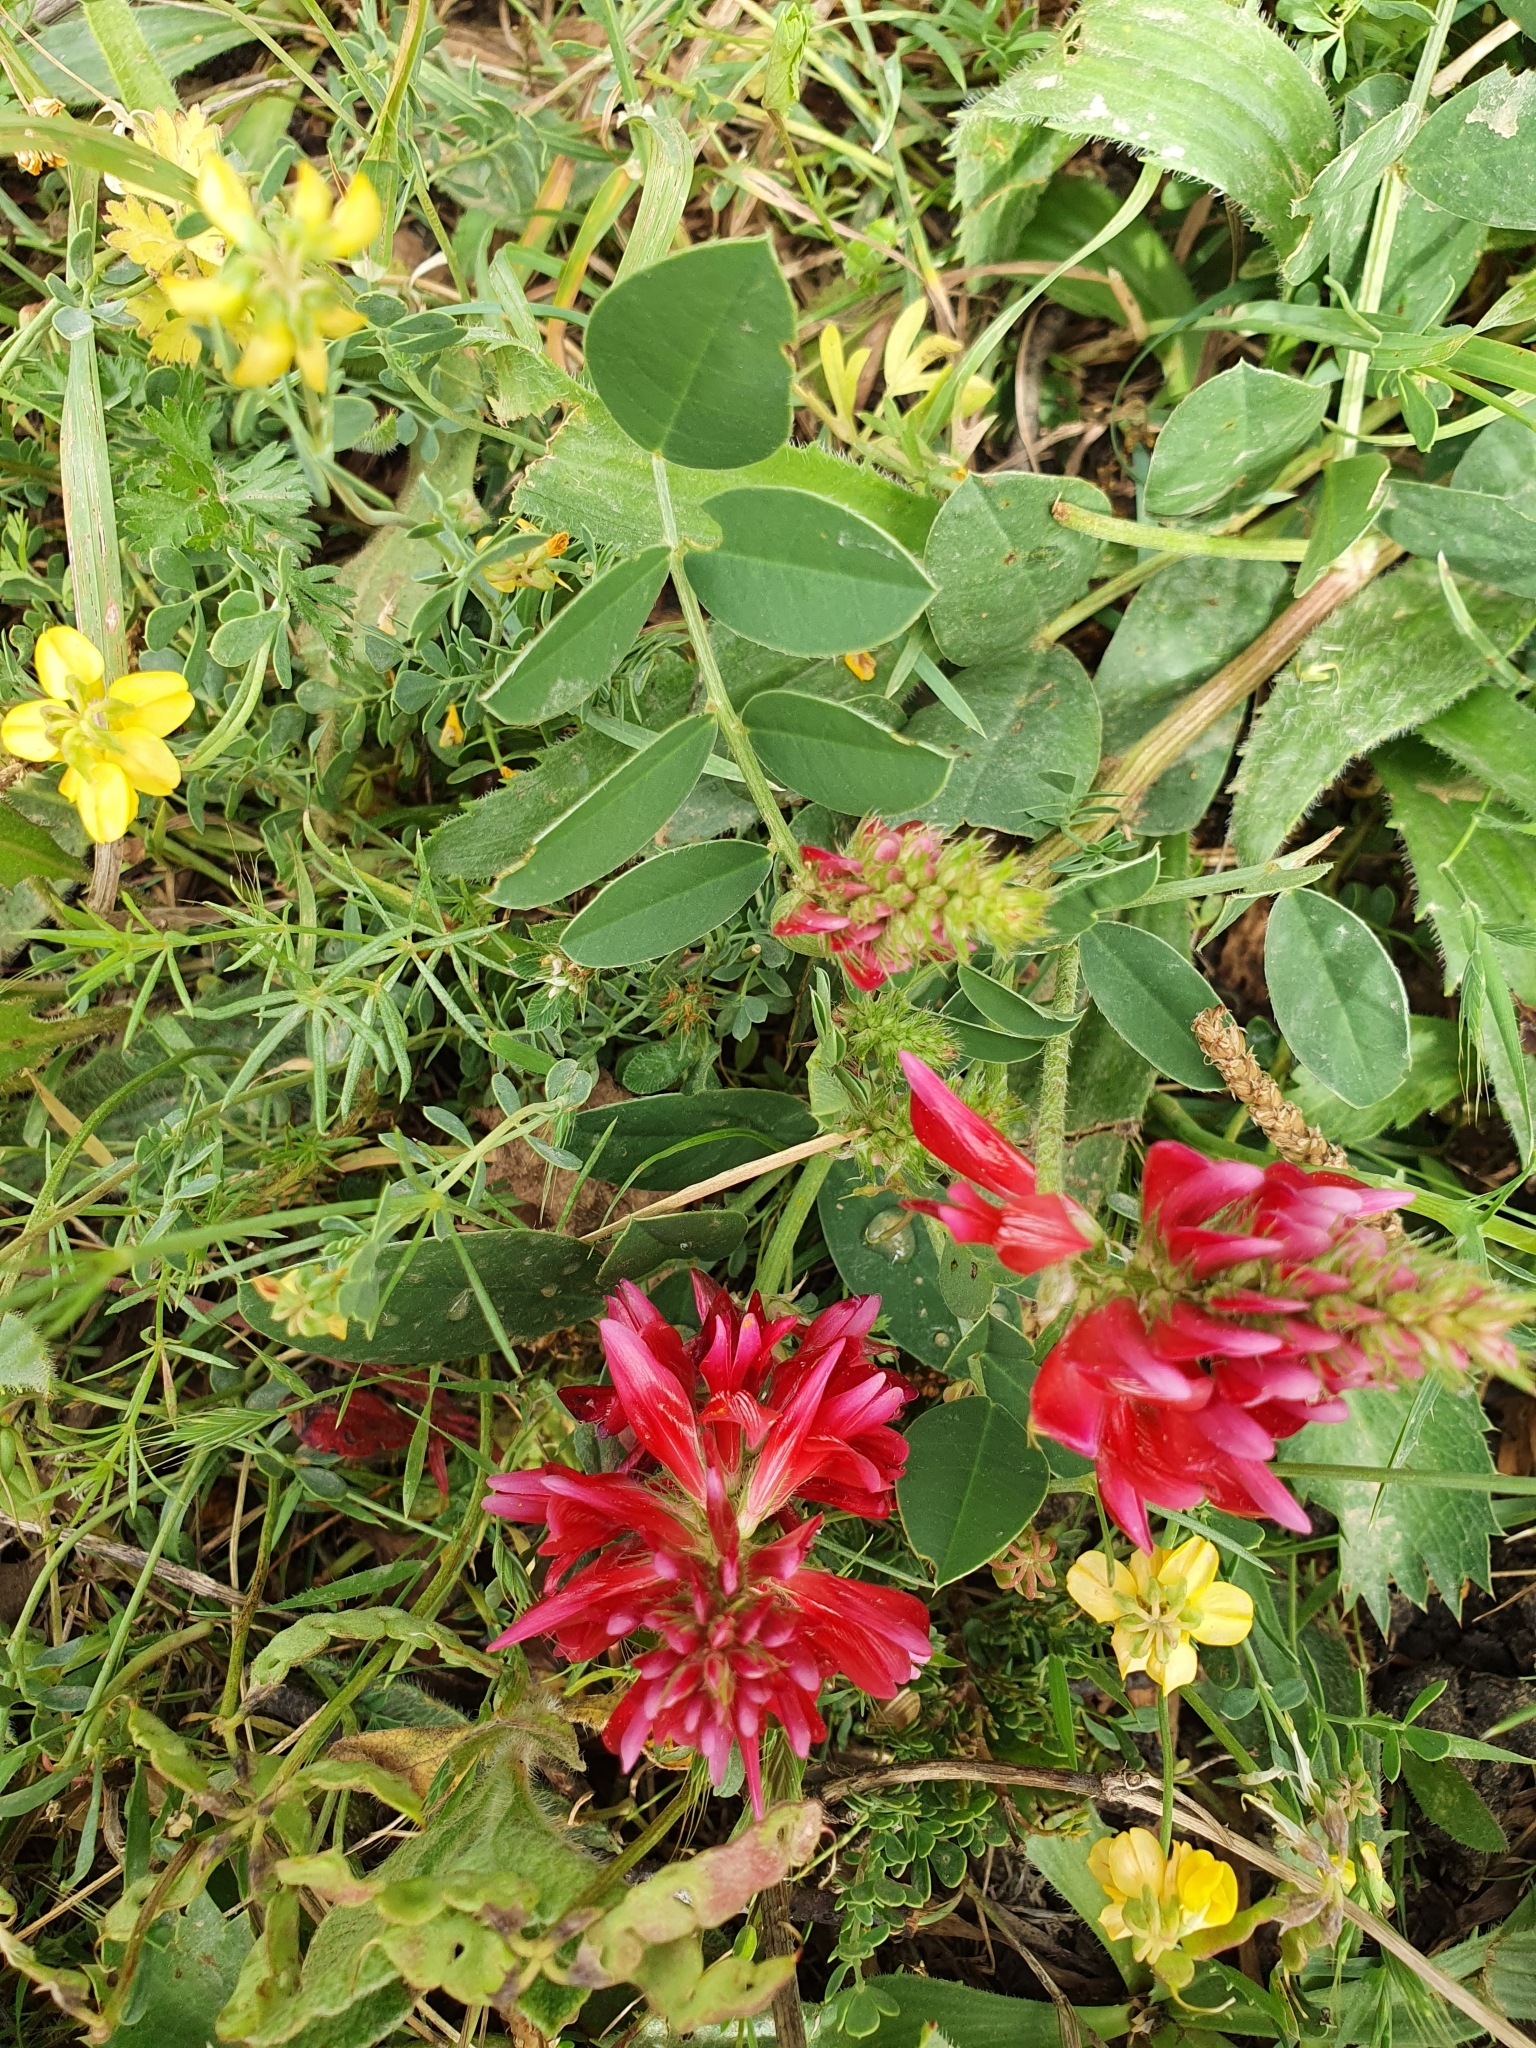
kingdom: Plantae
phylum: Tracheophyta
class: Magnoliopsida
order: Fabales
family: Fabaceae
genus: Sulla
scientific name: Sulla coronaria
